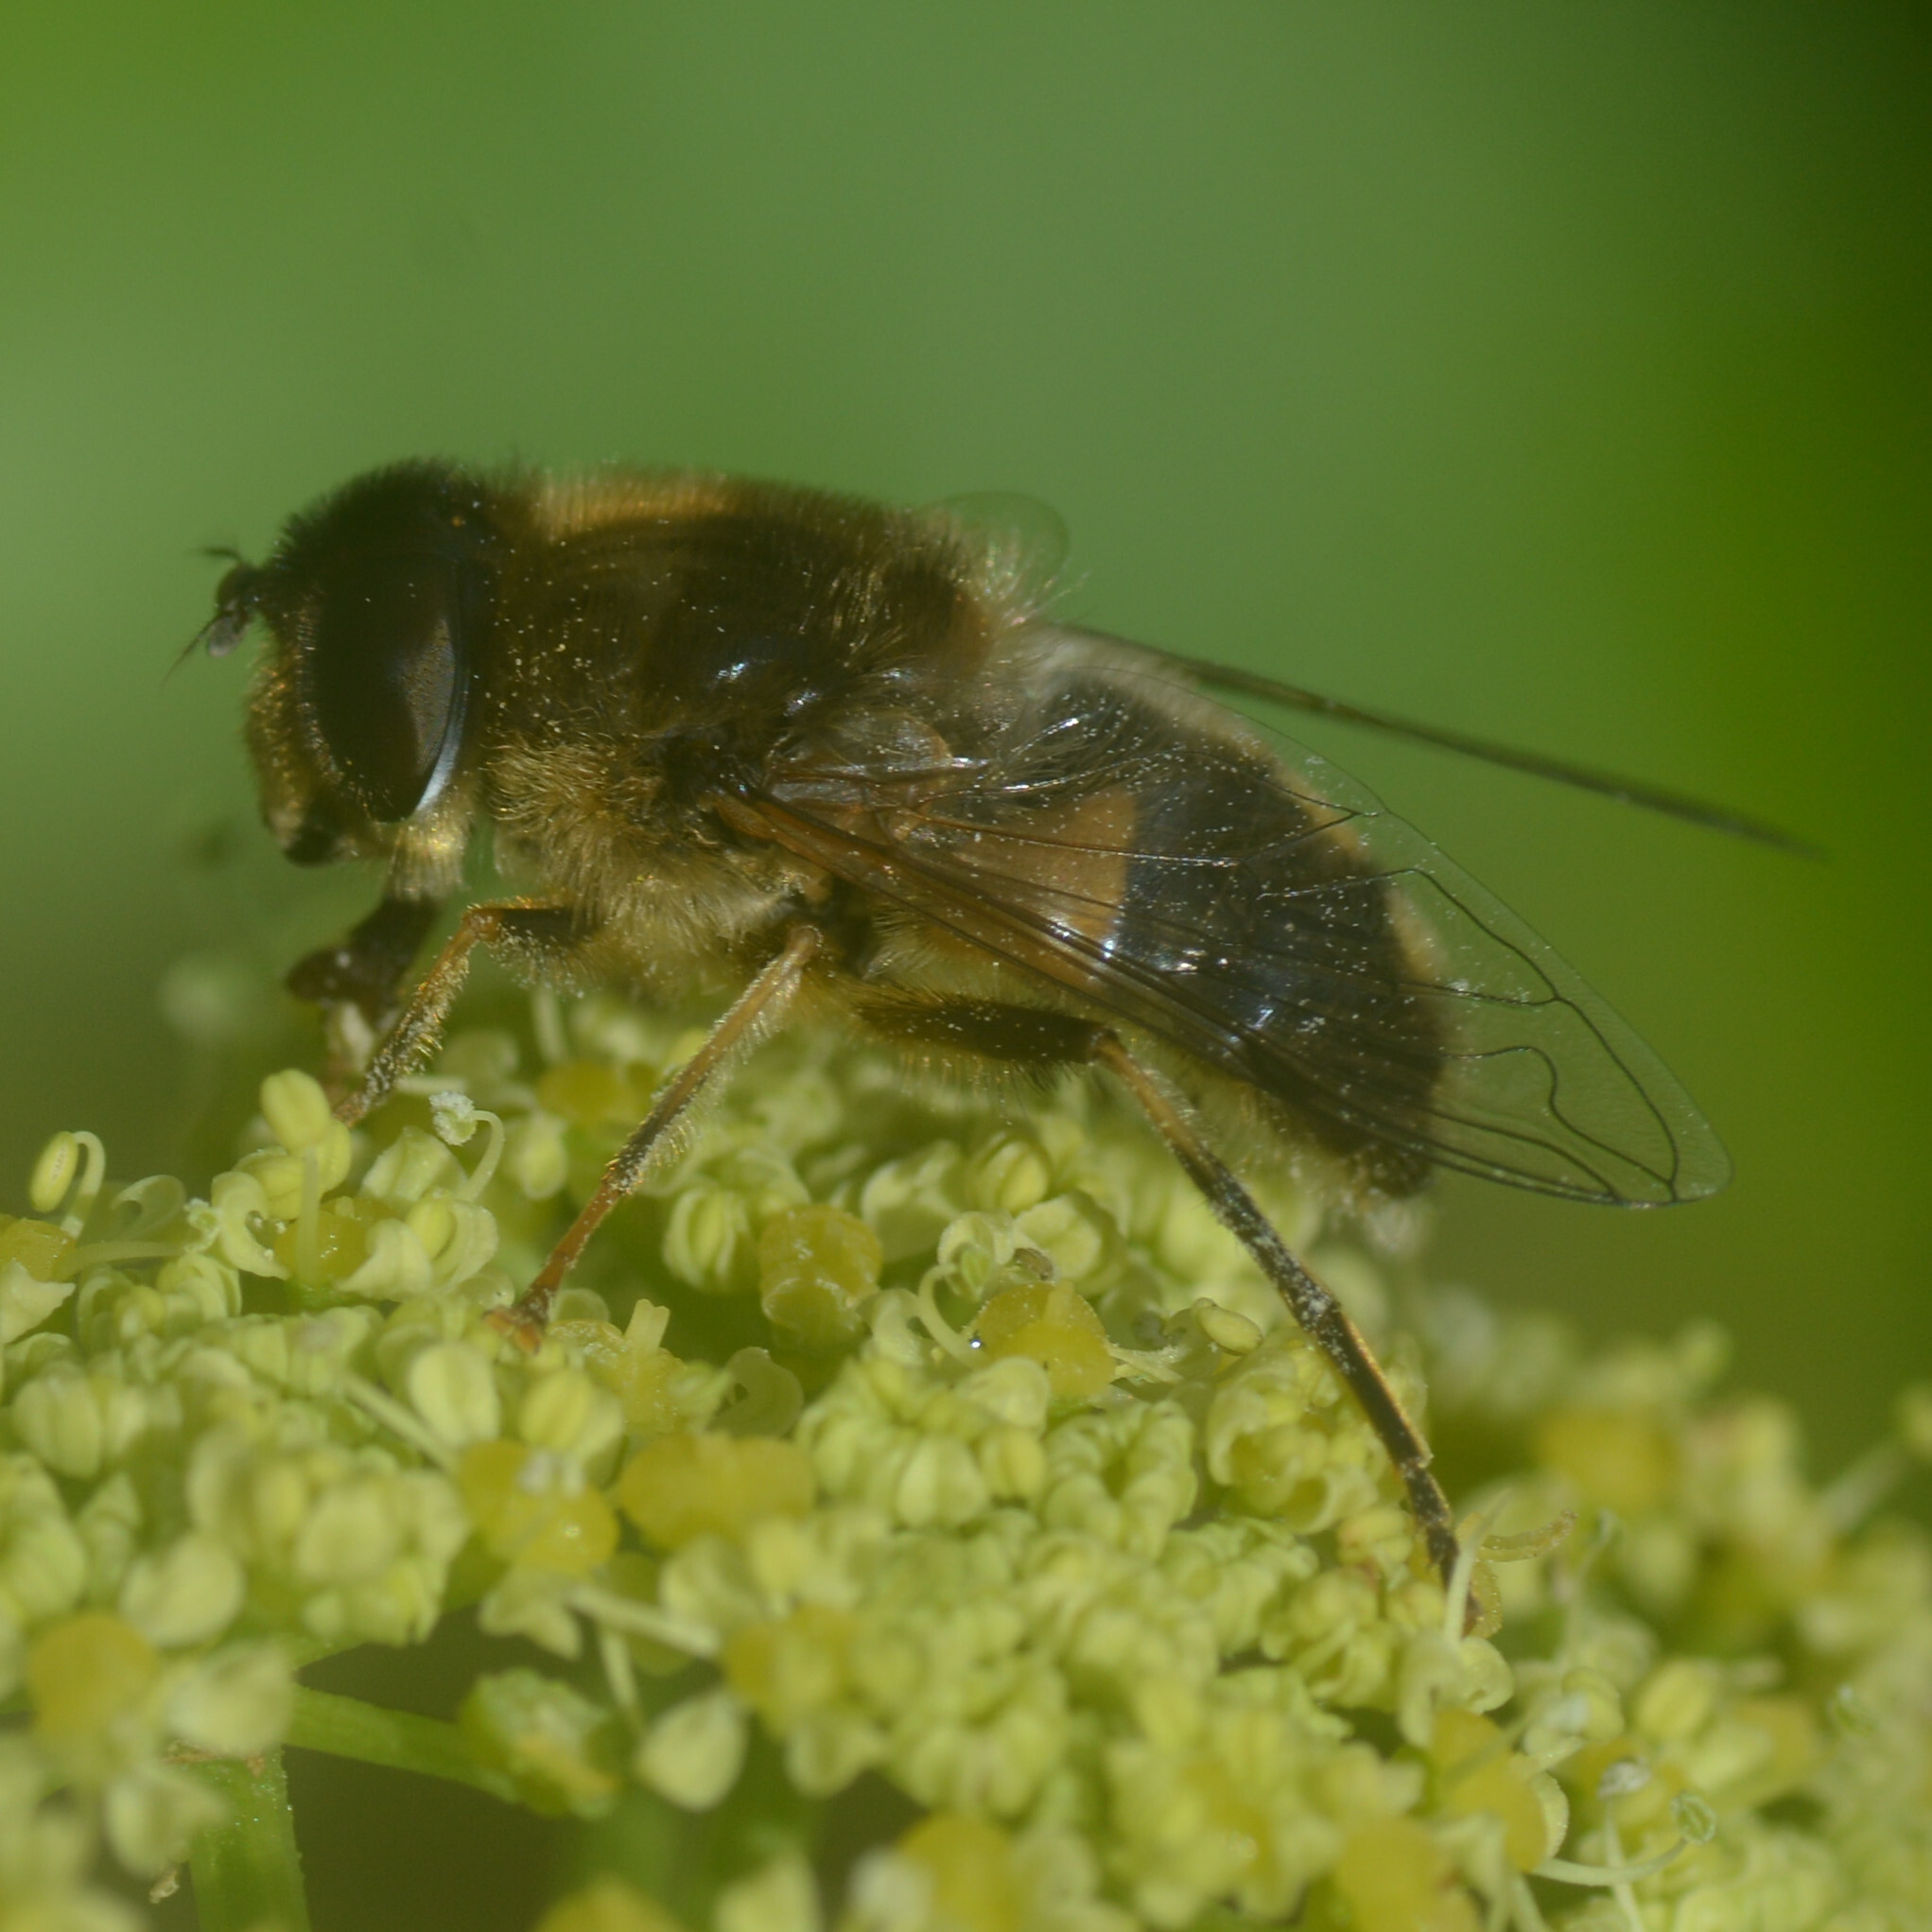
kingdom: Animalia
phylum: Arthropoda
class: Insecta
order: Diptera
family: Syrphidae
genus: Eristalis
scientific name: Eristalis pertinax
